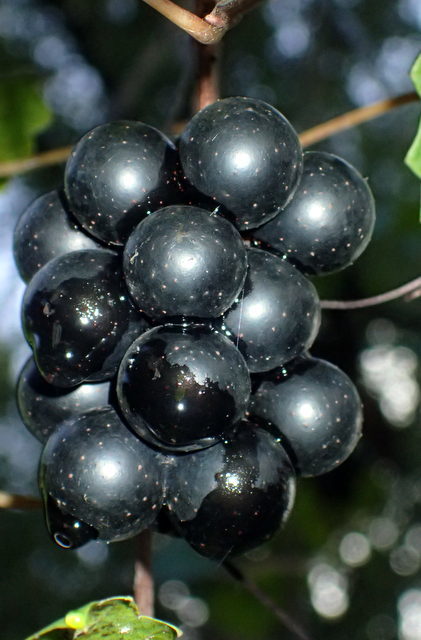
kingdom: Plantae
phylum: Tracheophyta
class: Magnoliopsida
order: Vitales
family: Vitaceae
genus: Vitis
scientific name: Vitis rotundifolia
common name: Muscadine grape
